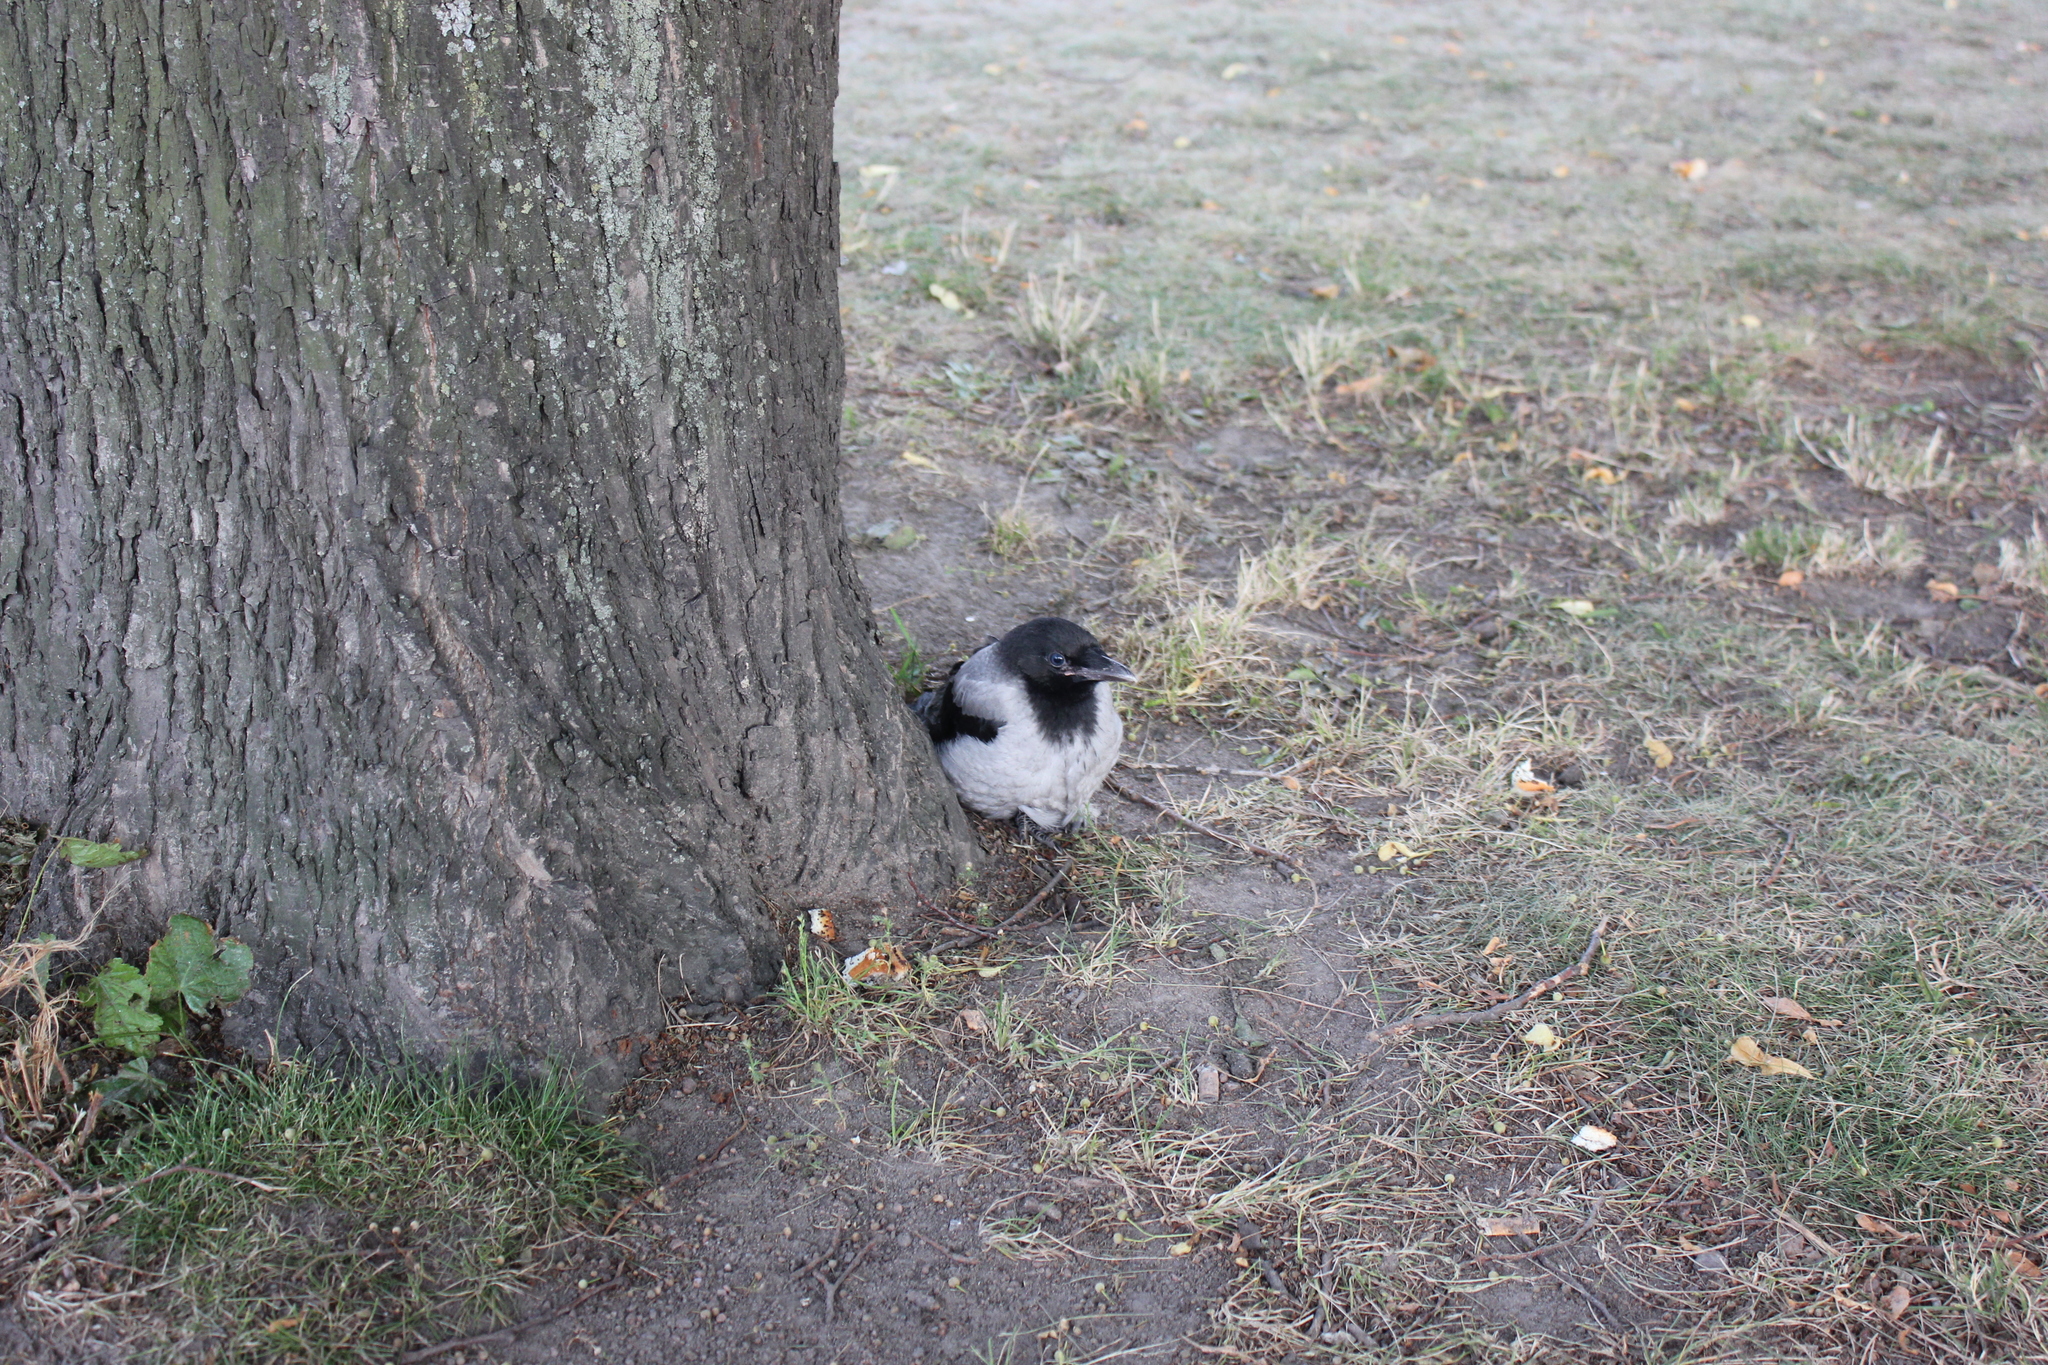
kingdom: Animalia
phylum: Chordata
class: Aves
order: Passeriformes
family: Corvidae
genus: Corvus
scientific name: Corvus cornix
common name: Hooded crow
